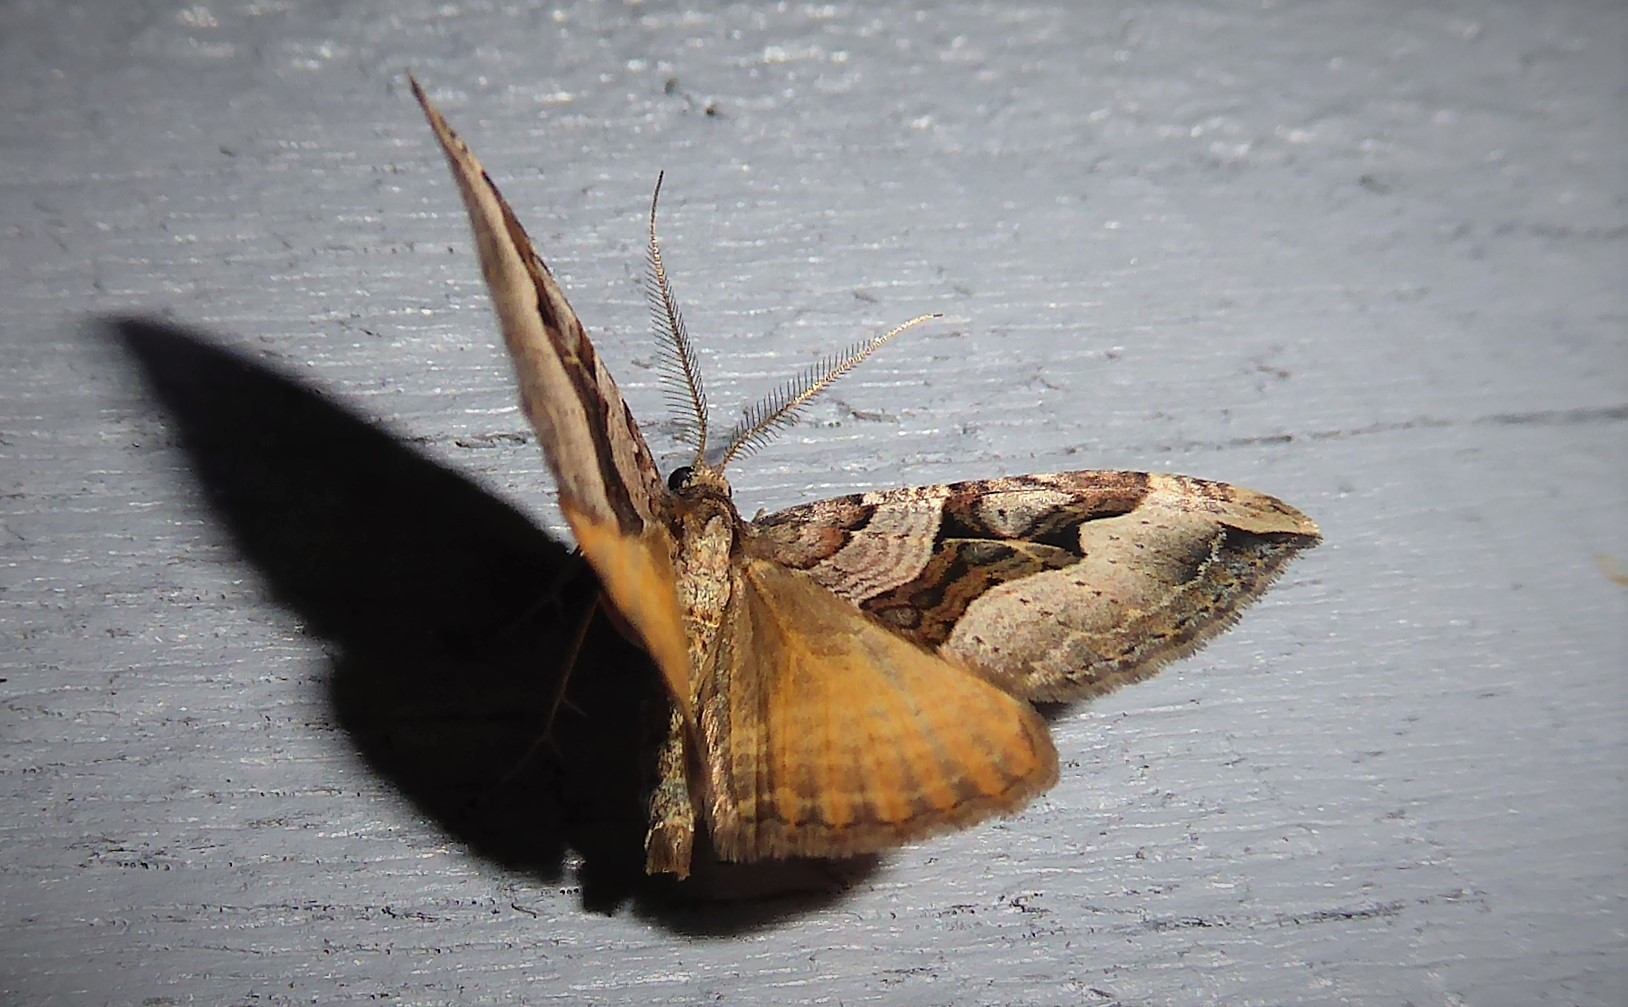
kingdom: Animalia
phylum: Arthropoda
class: Insecta
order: Lepidoptera
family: Geometridae
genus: Xanthorhoe
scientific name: Xanthorhoe semifissata
